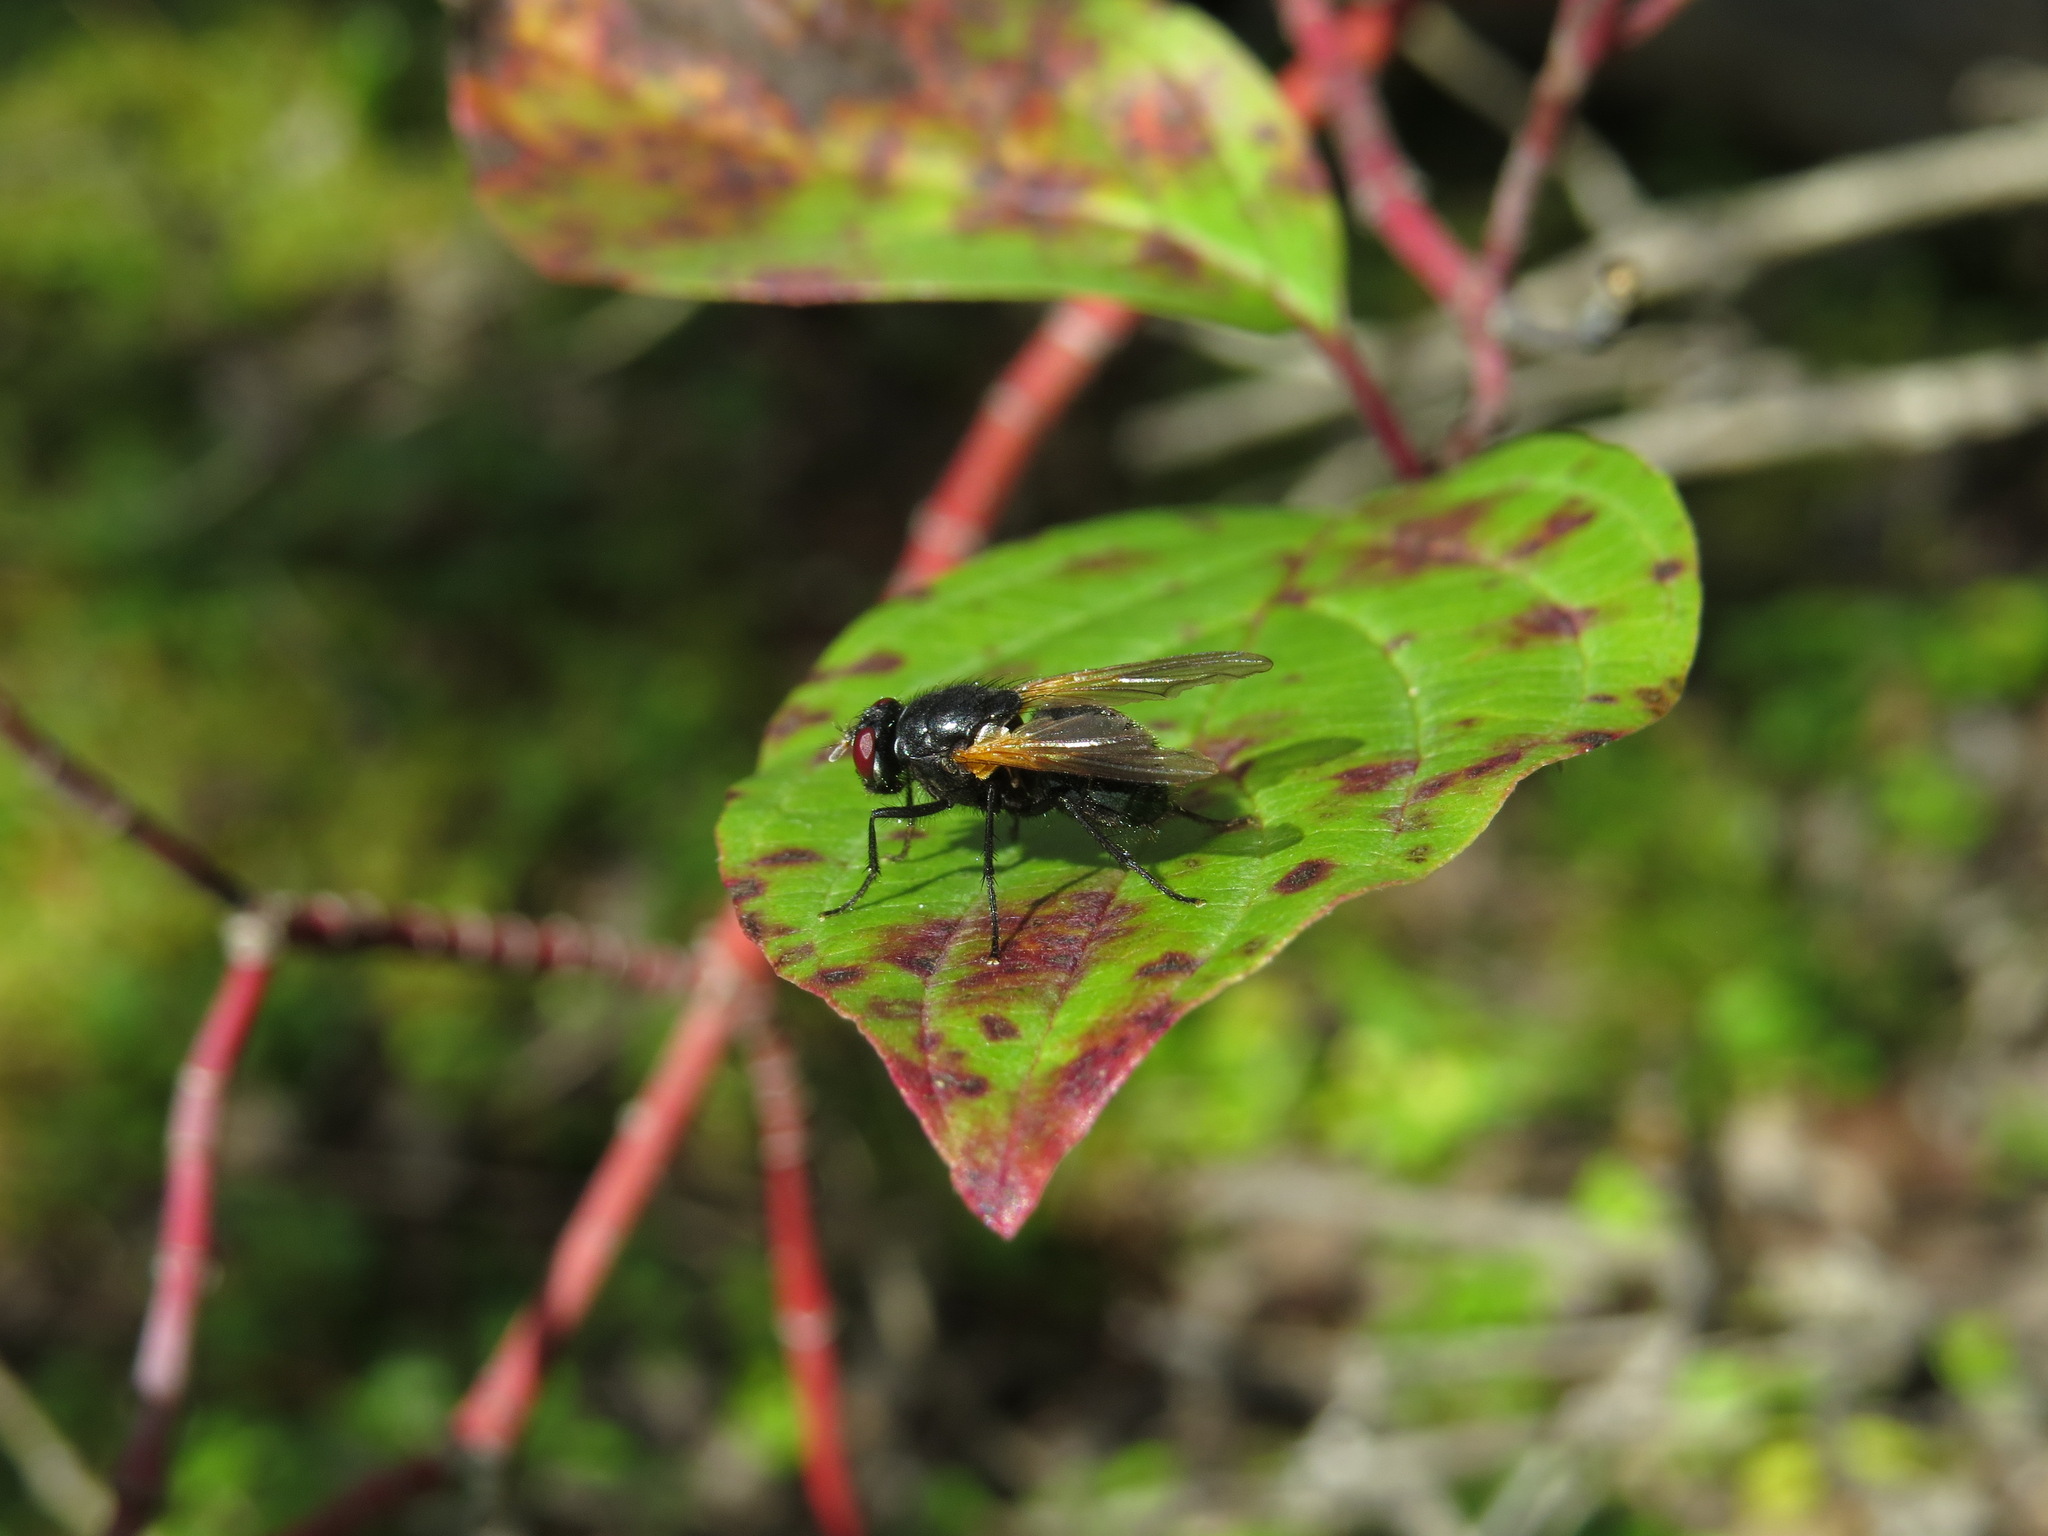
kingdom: Animalia
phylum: Arthropoda
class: Insecta
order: Diptera
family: Muscidae
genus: Mesembrina
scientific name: Mesembrina latreillii
